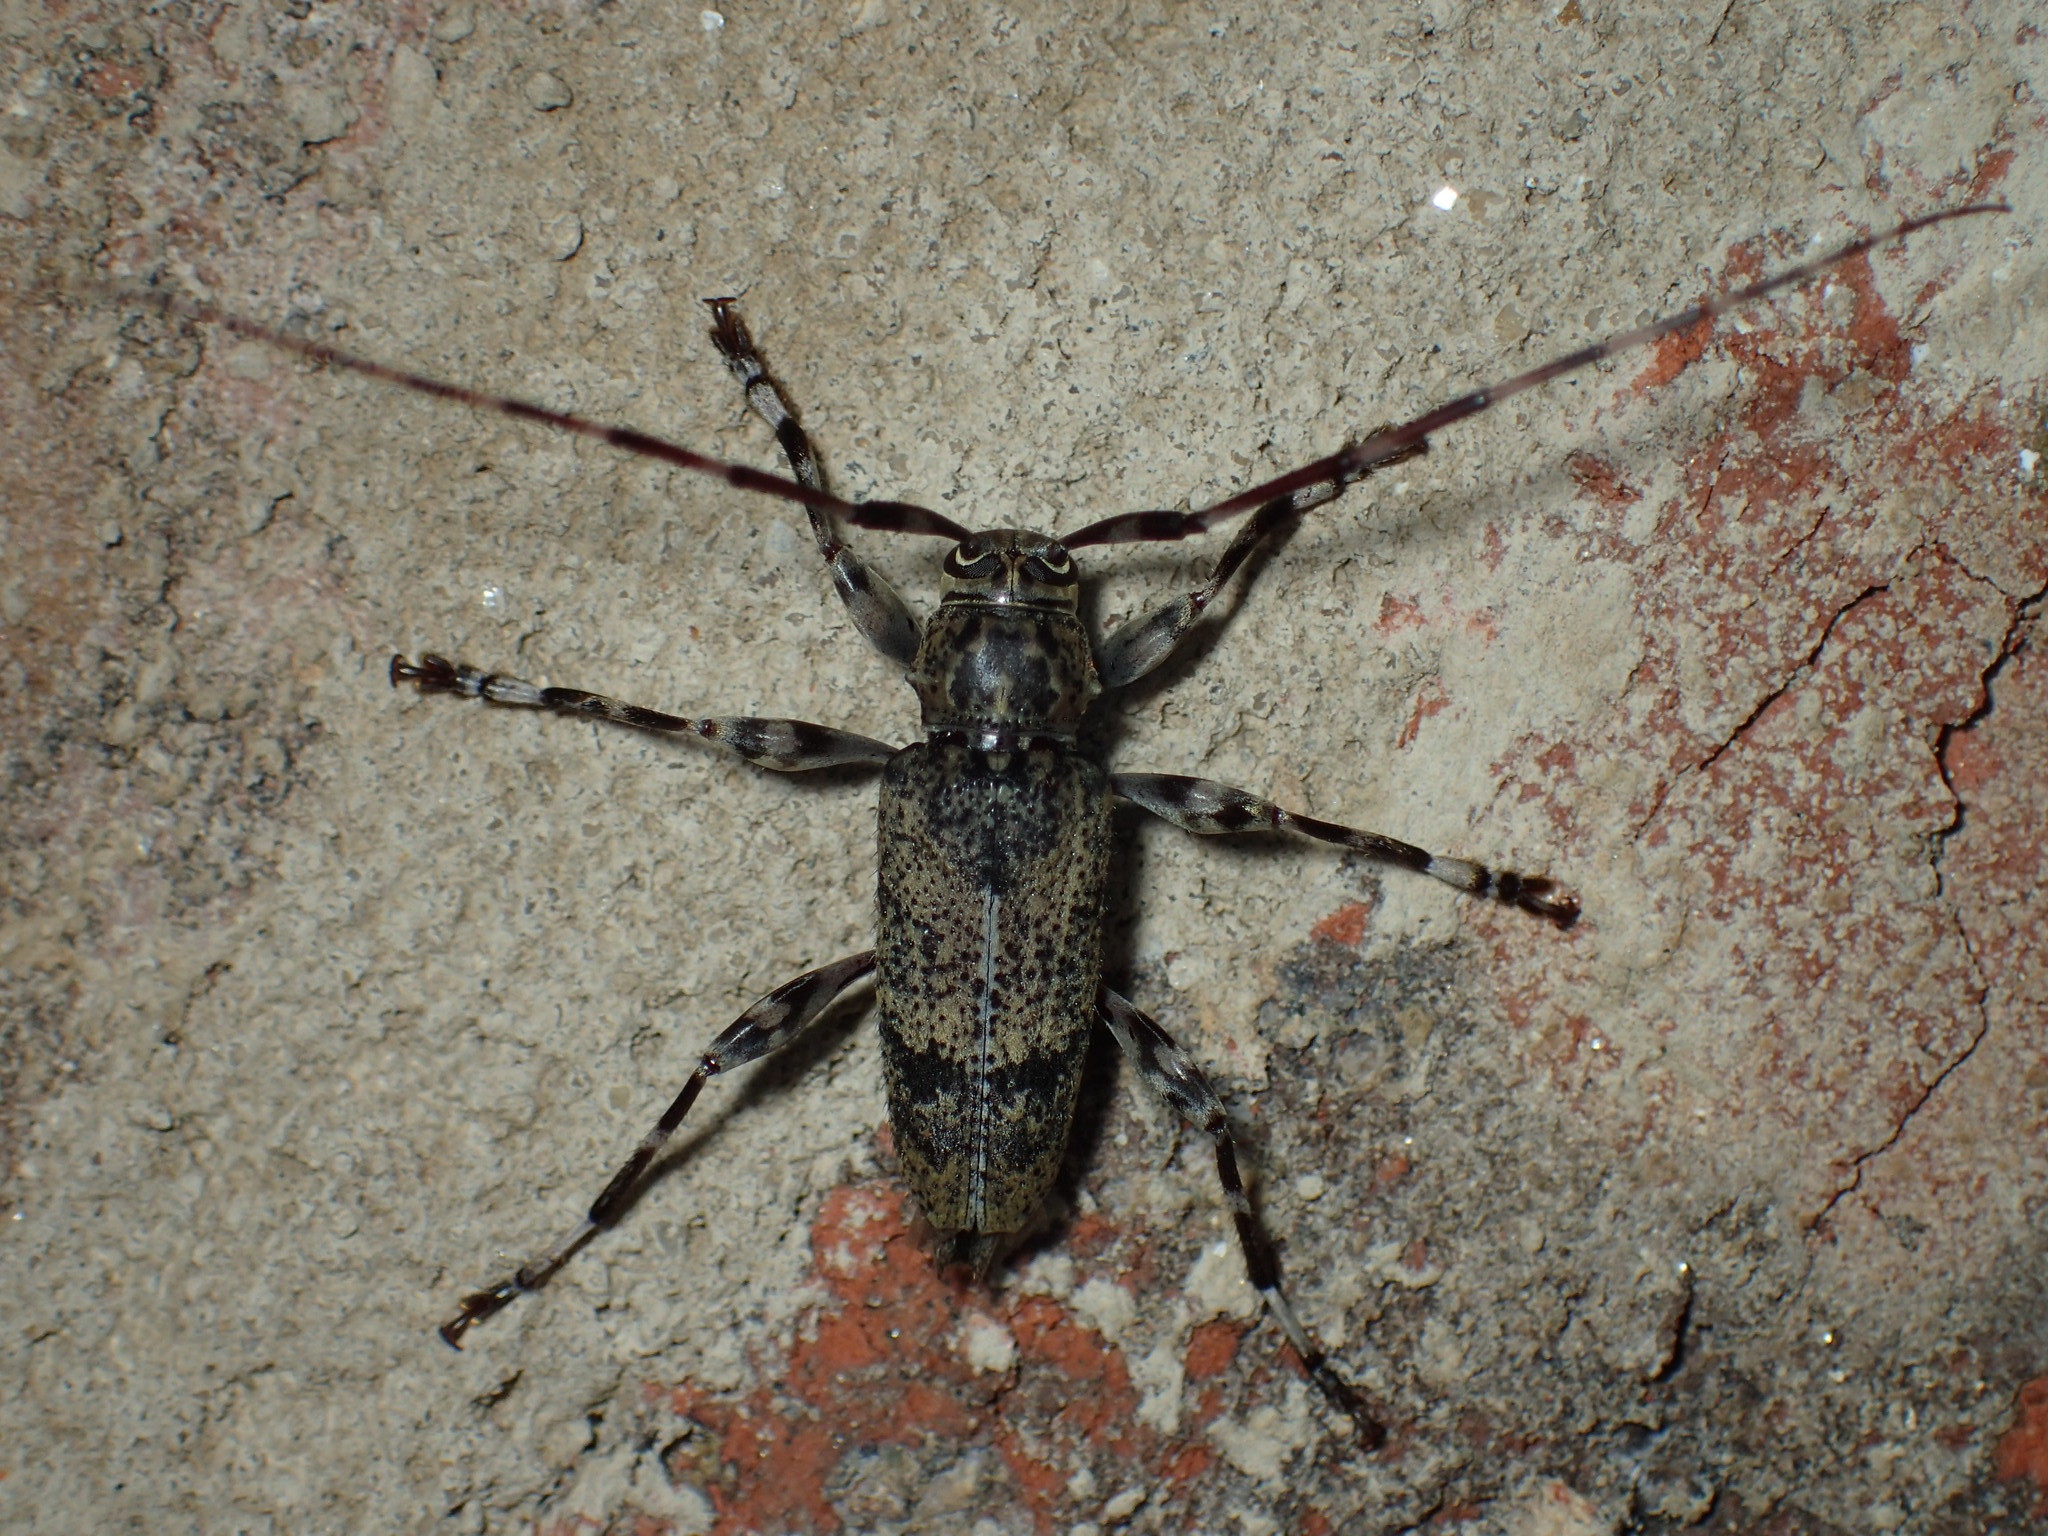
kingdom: Animalia
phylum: Arthropoda
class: Insecta
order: Coleoptera
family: Cerambycidae
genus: Graphisurus
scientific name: Graphisurus fasciatus
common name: Banded graphisurus
